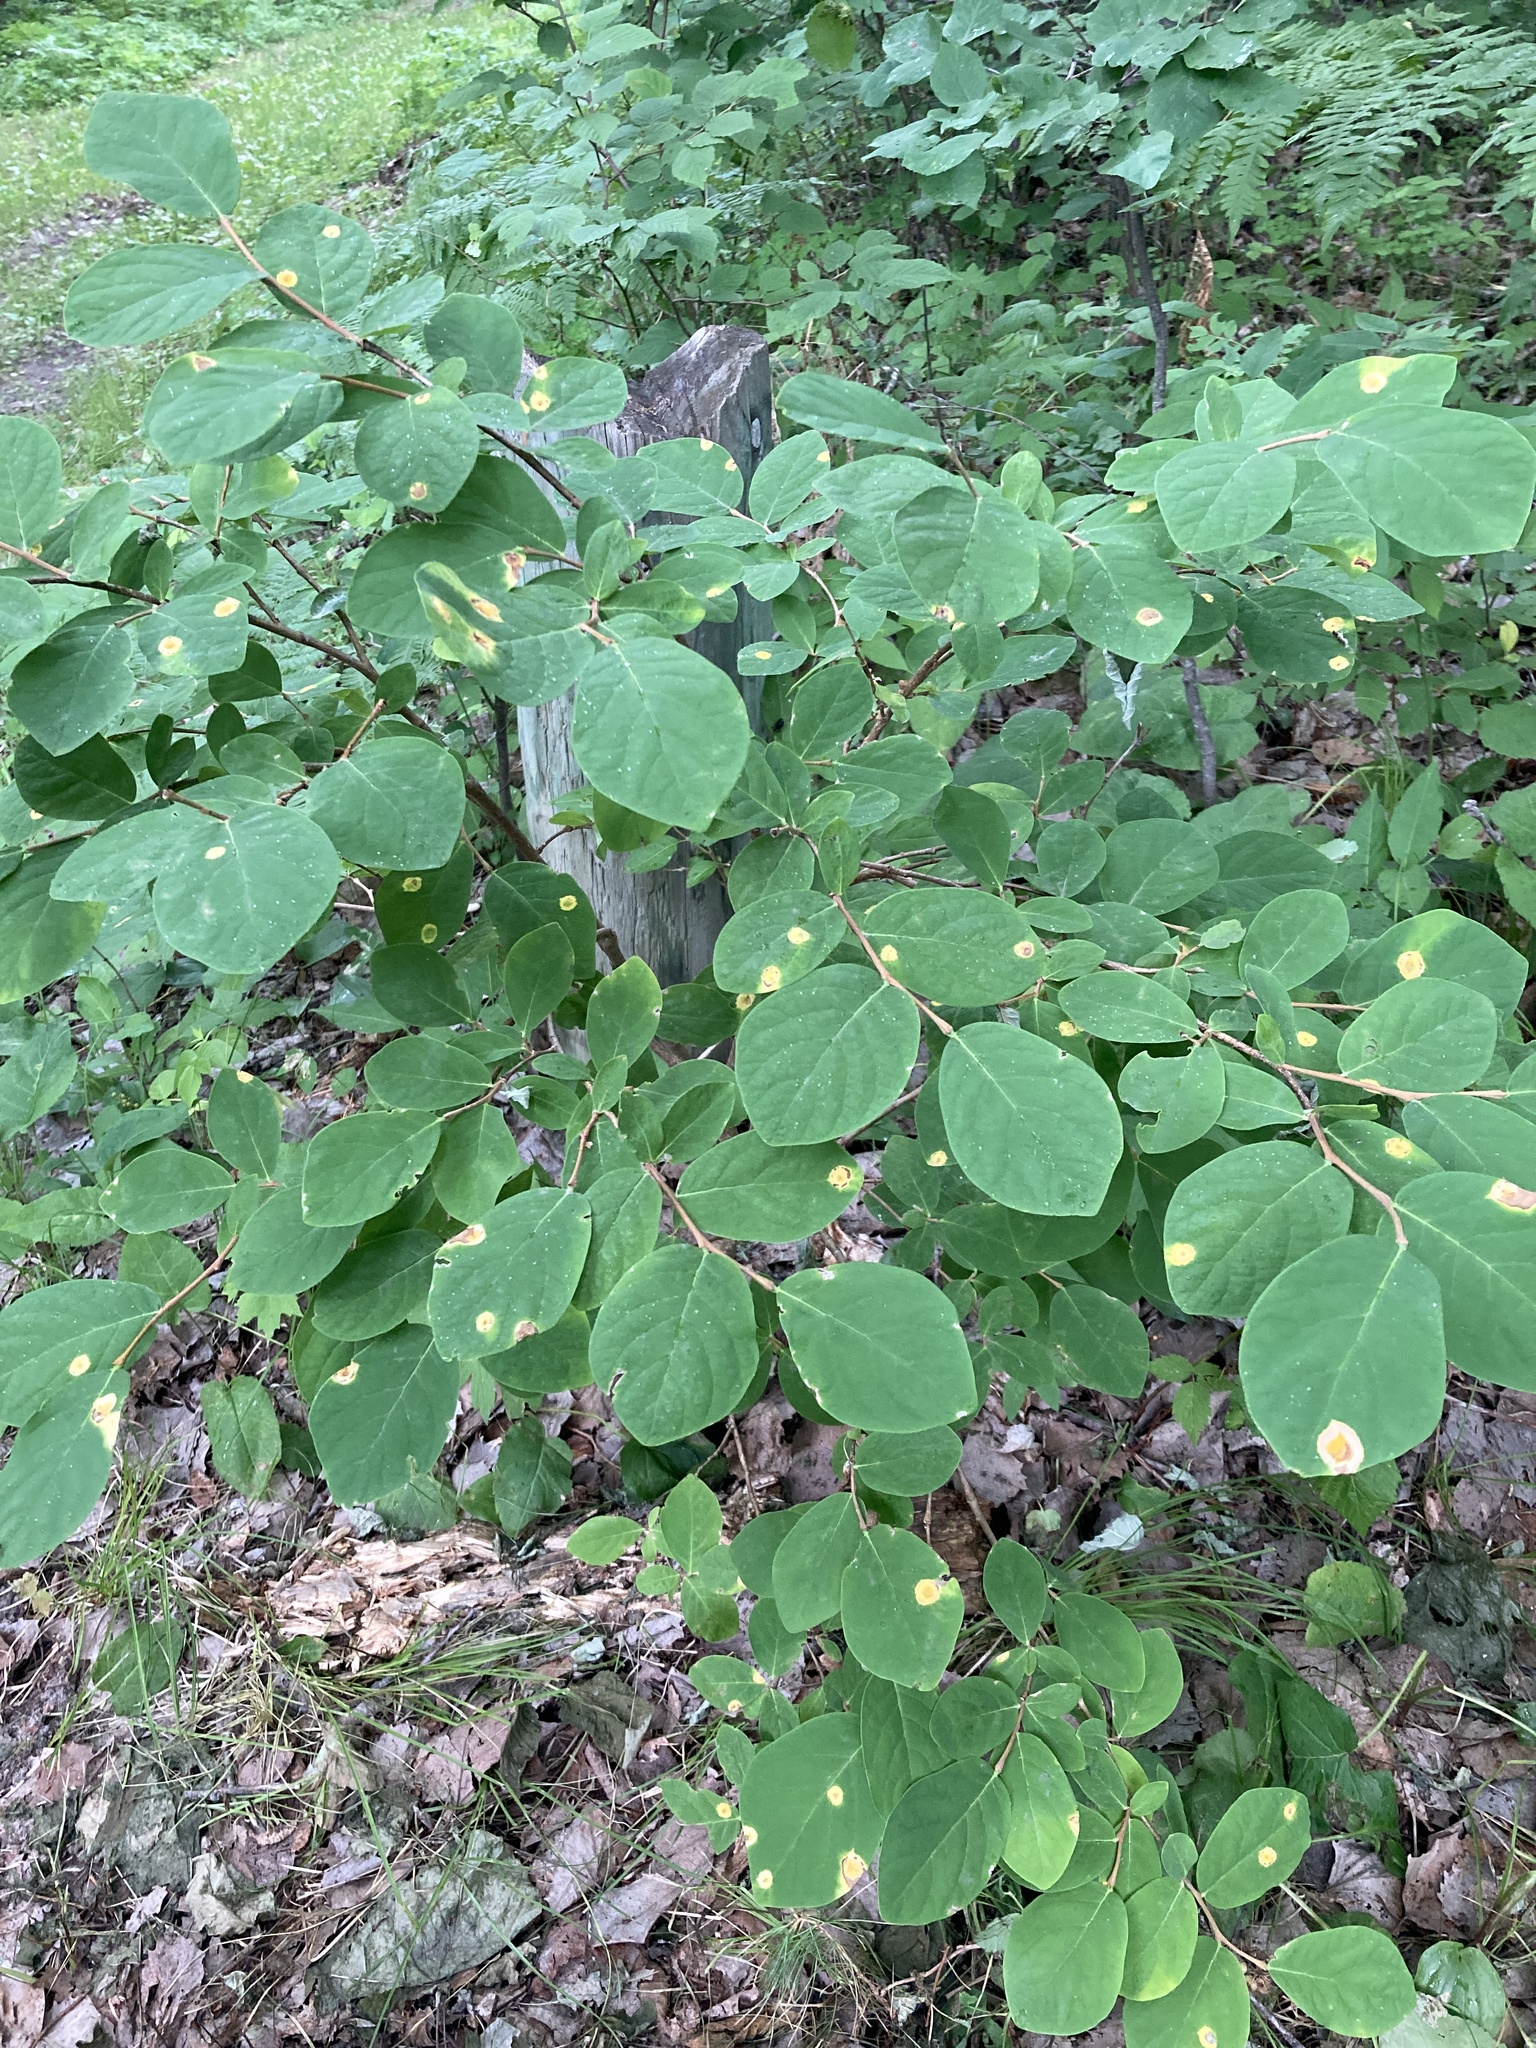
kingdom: Plantae
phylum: Tracheophyta
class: Magnoliopsida
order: Malvales
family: Thymelaeaceae
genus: Dirca
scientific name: Dirca palustris
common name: Leatherwood
